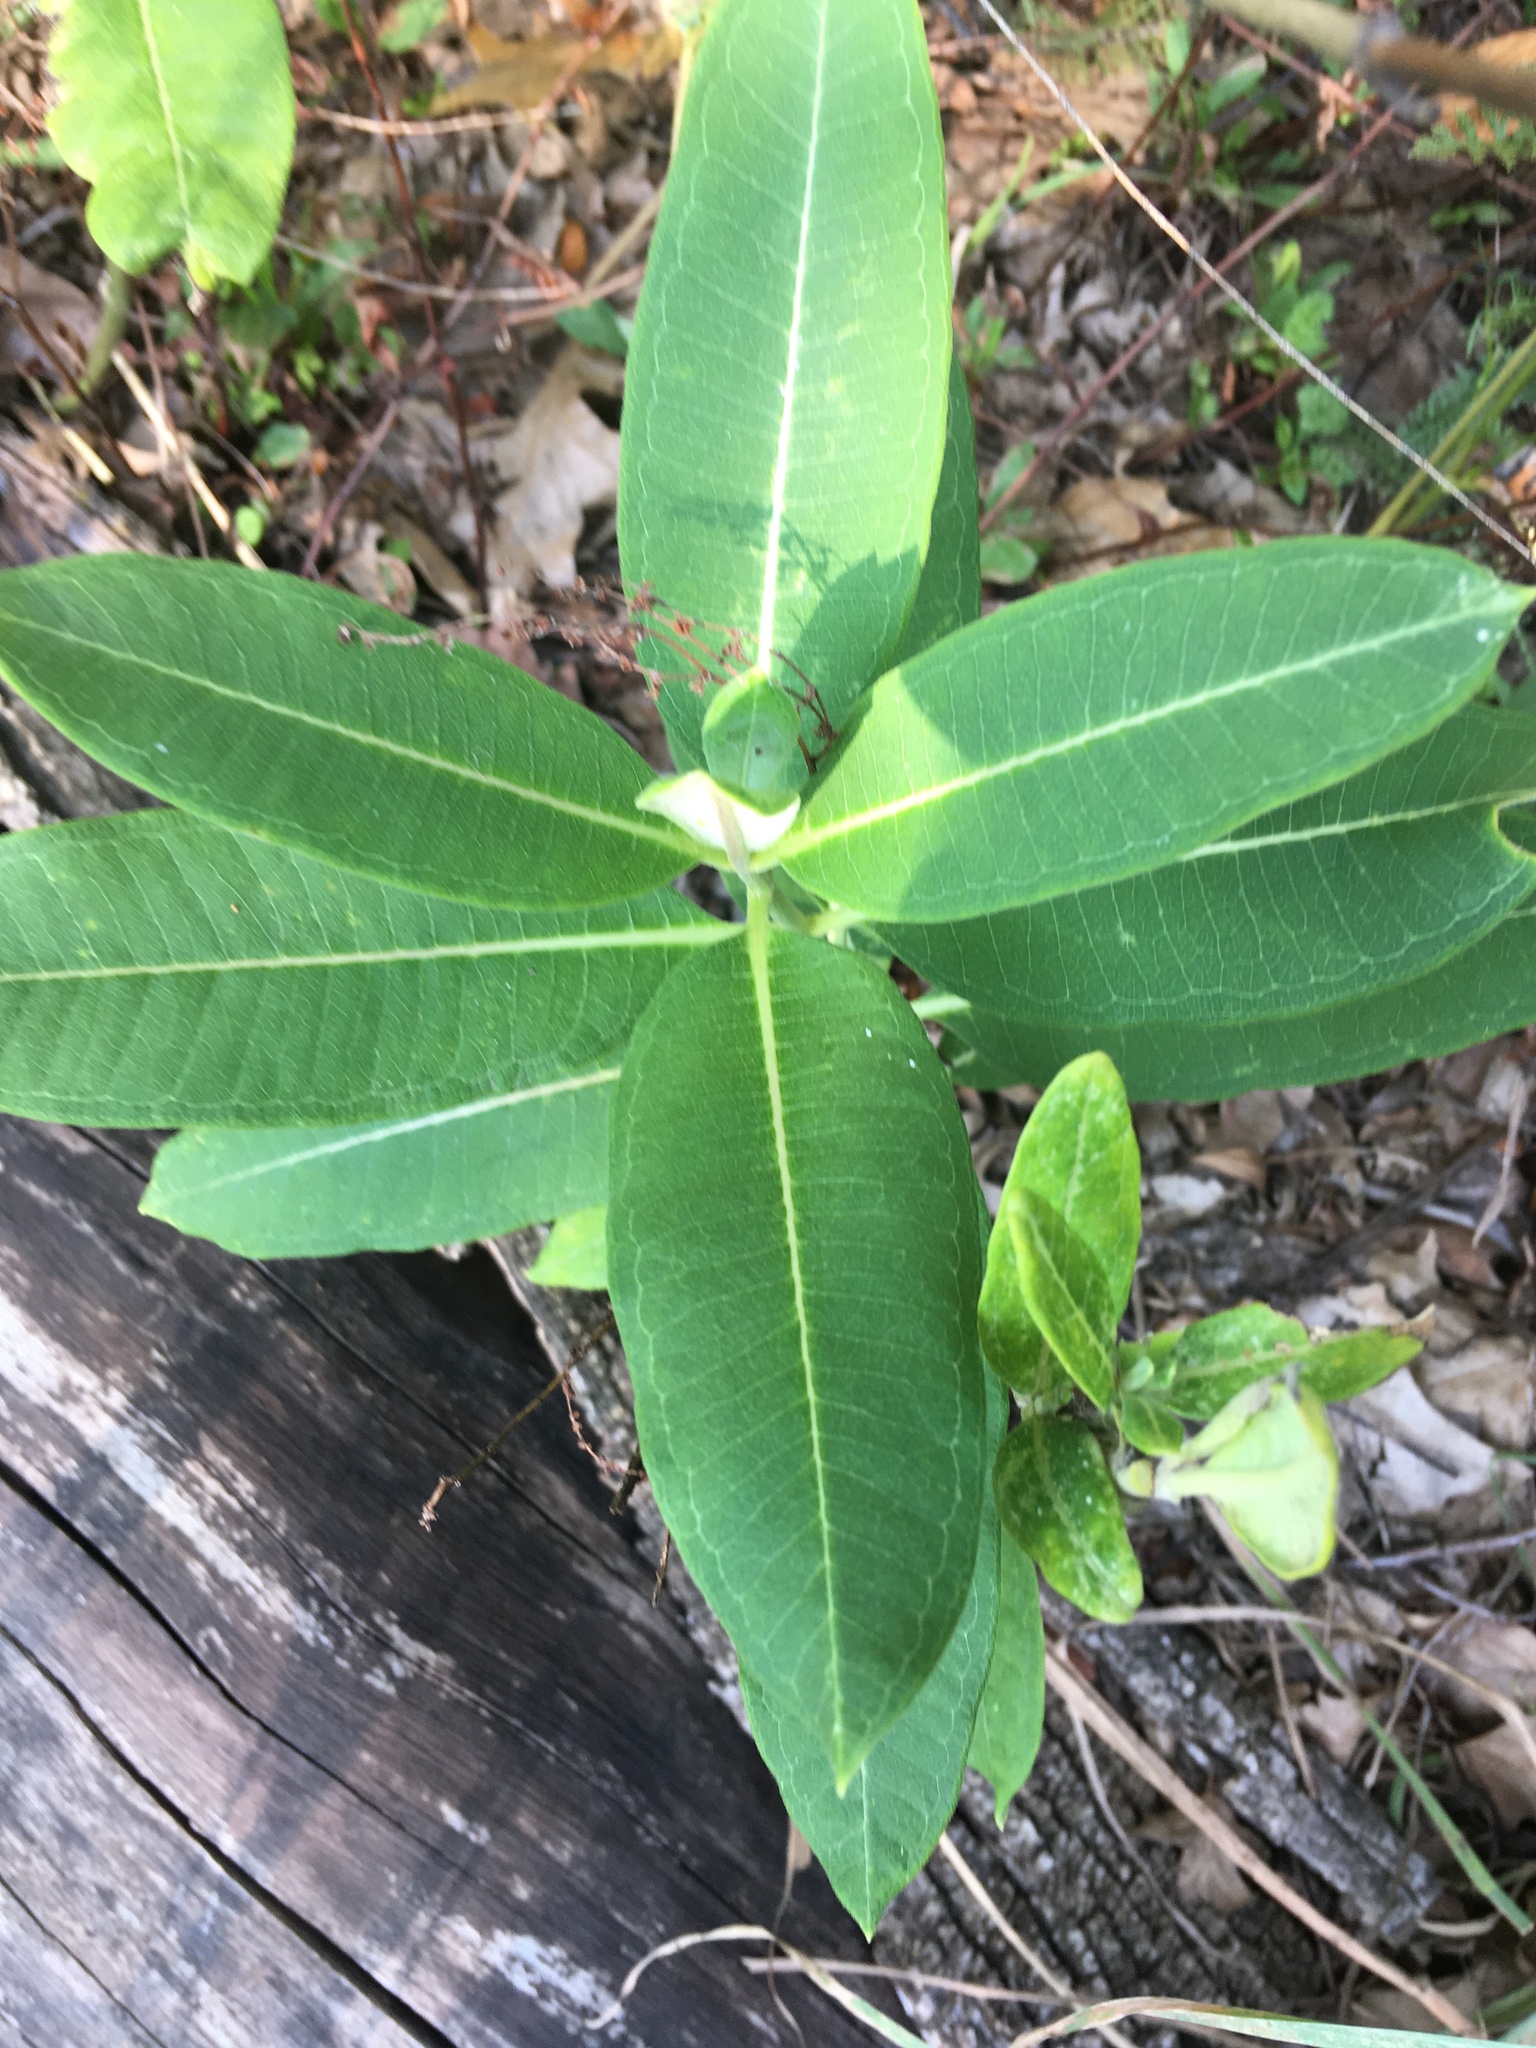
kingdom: Plantae
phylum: Tracheophyta
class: Magnoliopsida
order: Gentianales
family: Apocynaceae
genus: Asclepias
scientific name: Asclepias syriaca
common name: Common milkweed
